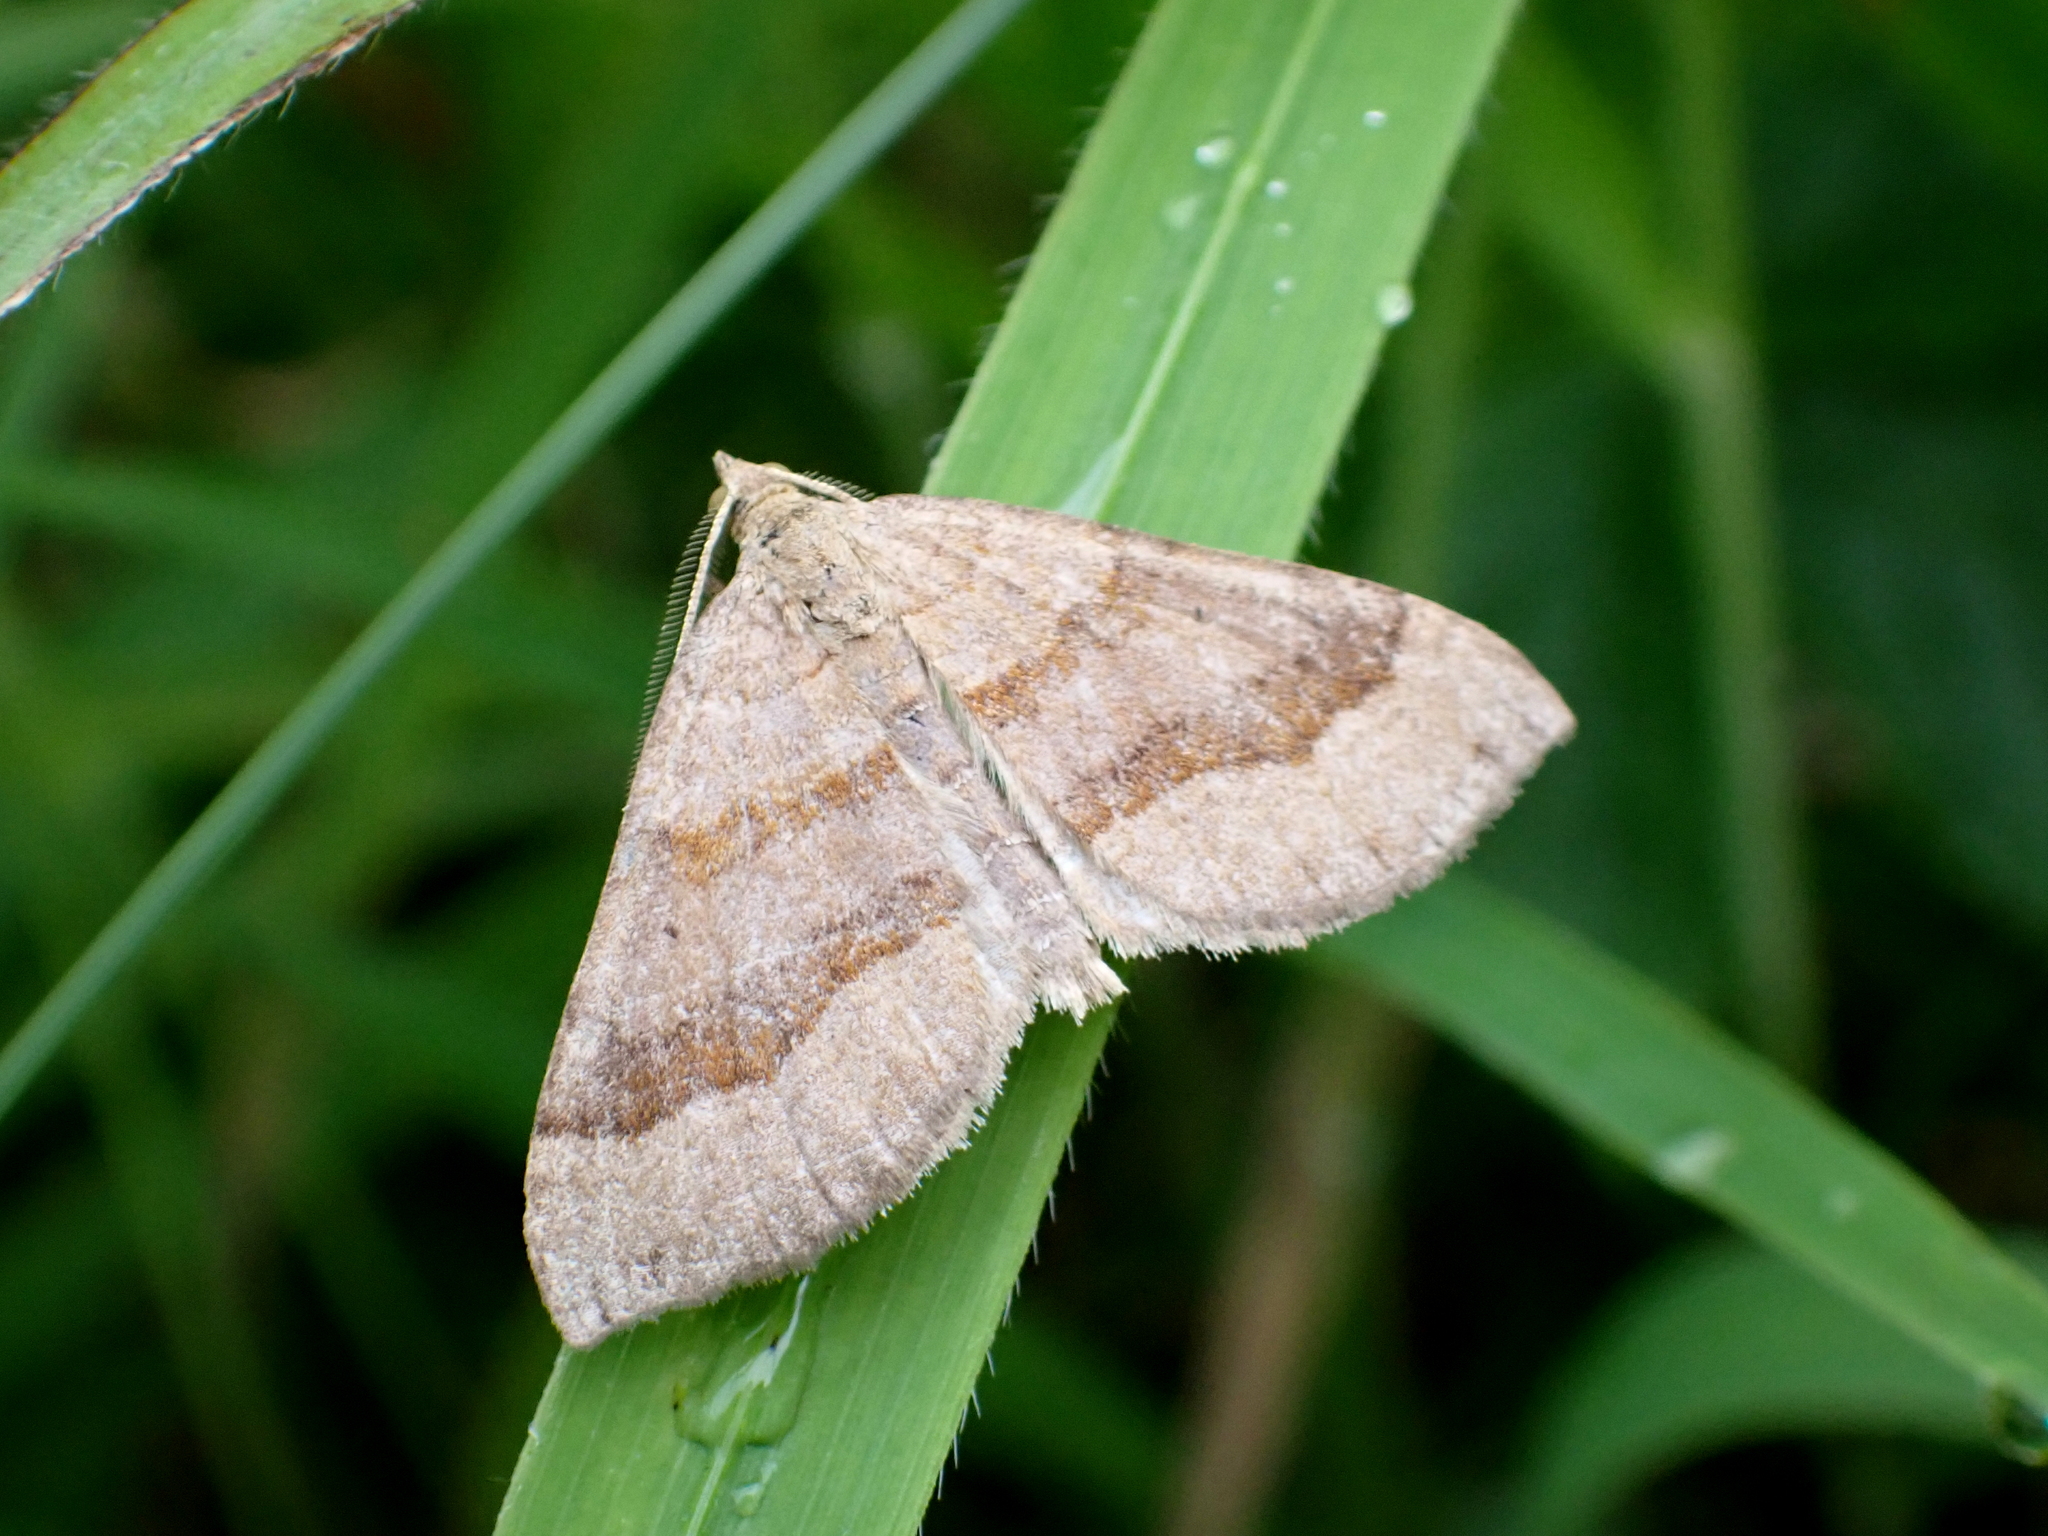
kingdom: Animalia
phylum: Arthropoda
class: Insecta
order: Lepidoptera
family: Geometridae
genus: Scotopteryx
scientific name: Scotopteryx chenopodiata
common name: Shaded broad-bar
